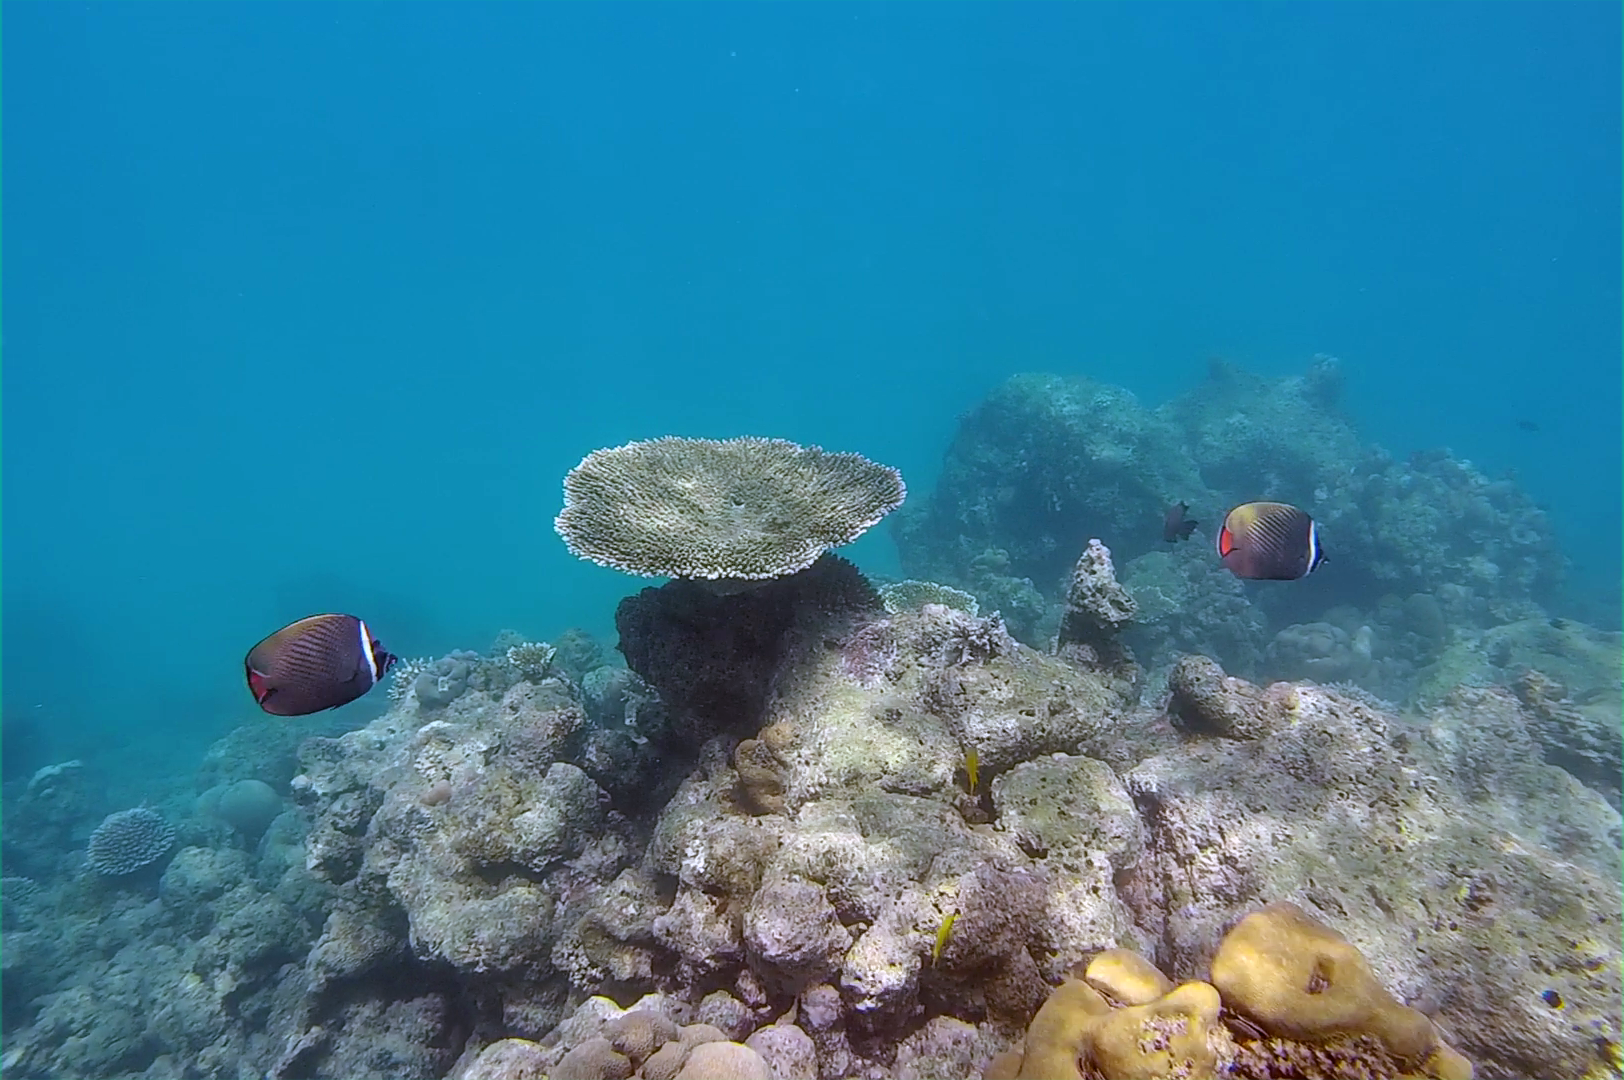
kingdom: Animalia
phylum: Chordata
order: Perciformes
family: Chaetodontidae
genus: Chaetodon
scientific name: Chaetodon collare
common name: Redtail butterflyfish
